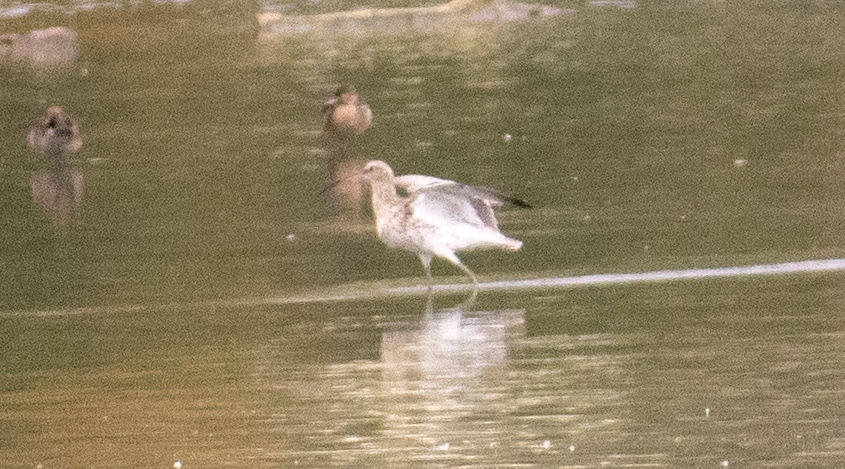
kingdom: Animalia
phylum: Chordata
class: Aves
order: Charadriiformes
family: Scolopacidae
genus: Numenius
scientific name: Numenius arquata
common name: Eurasian curlew
